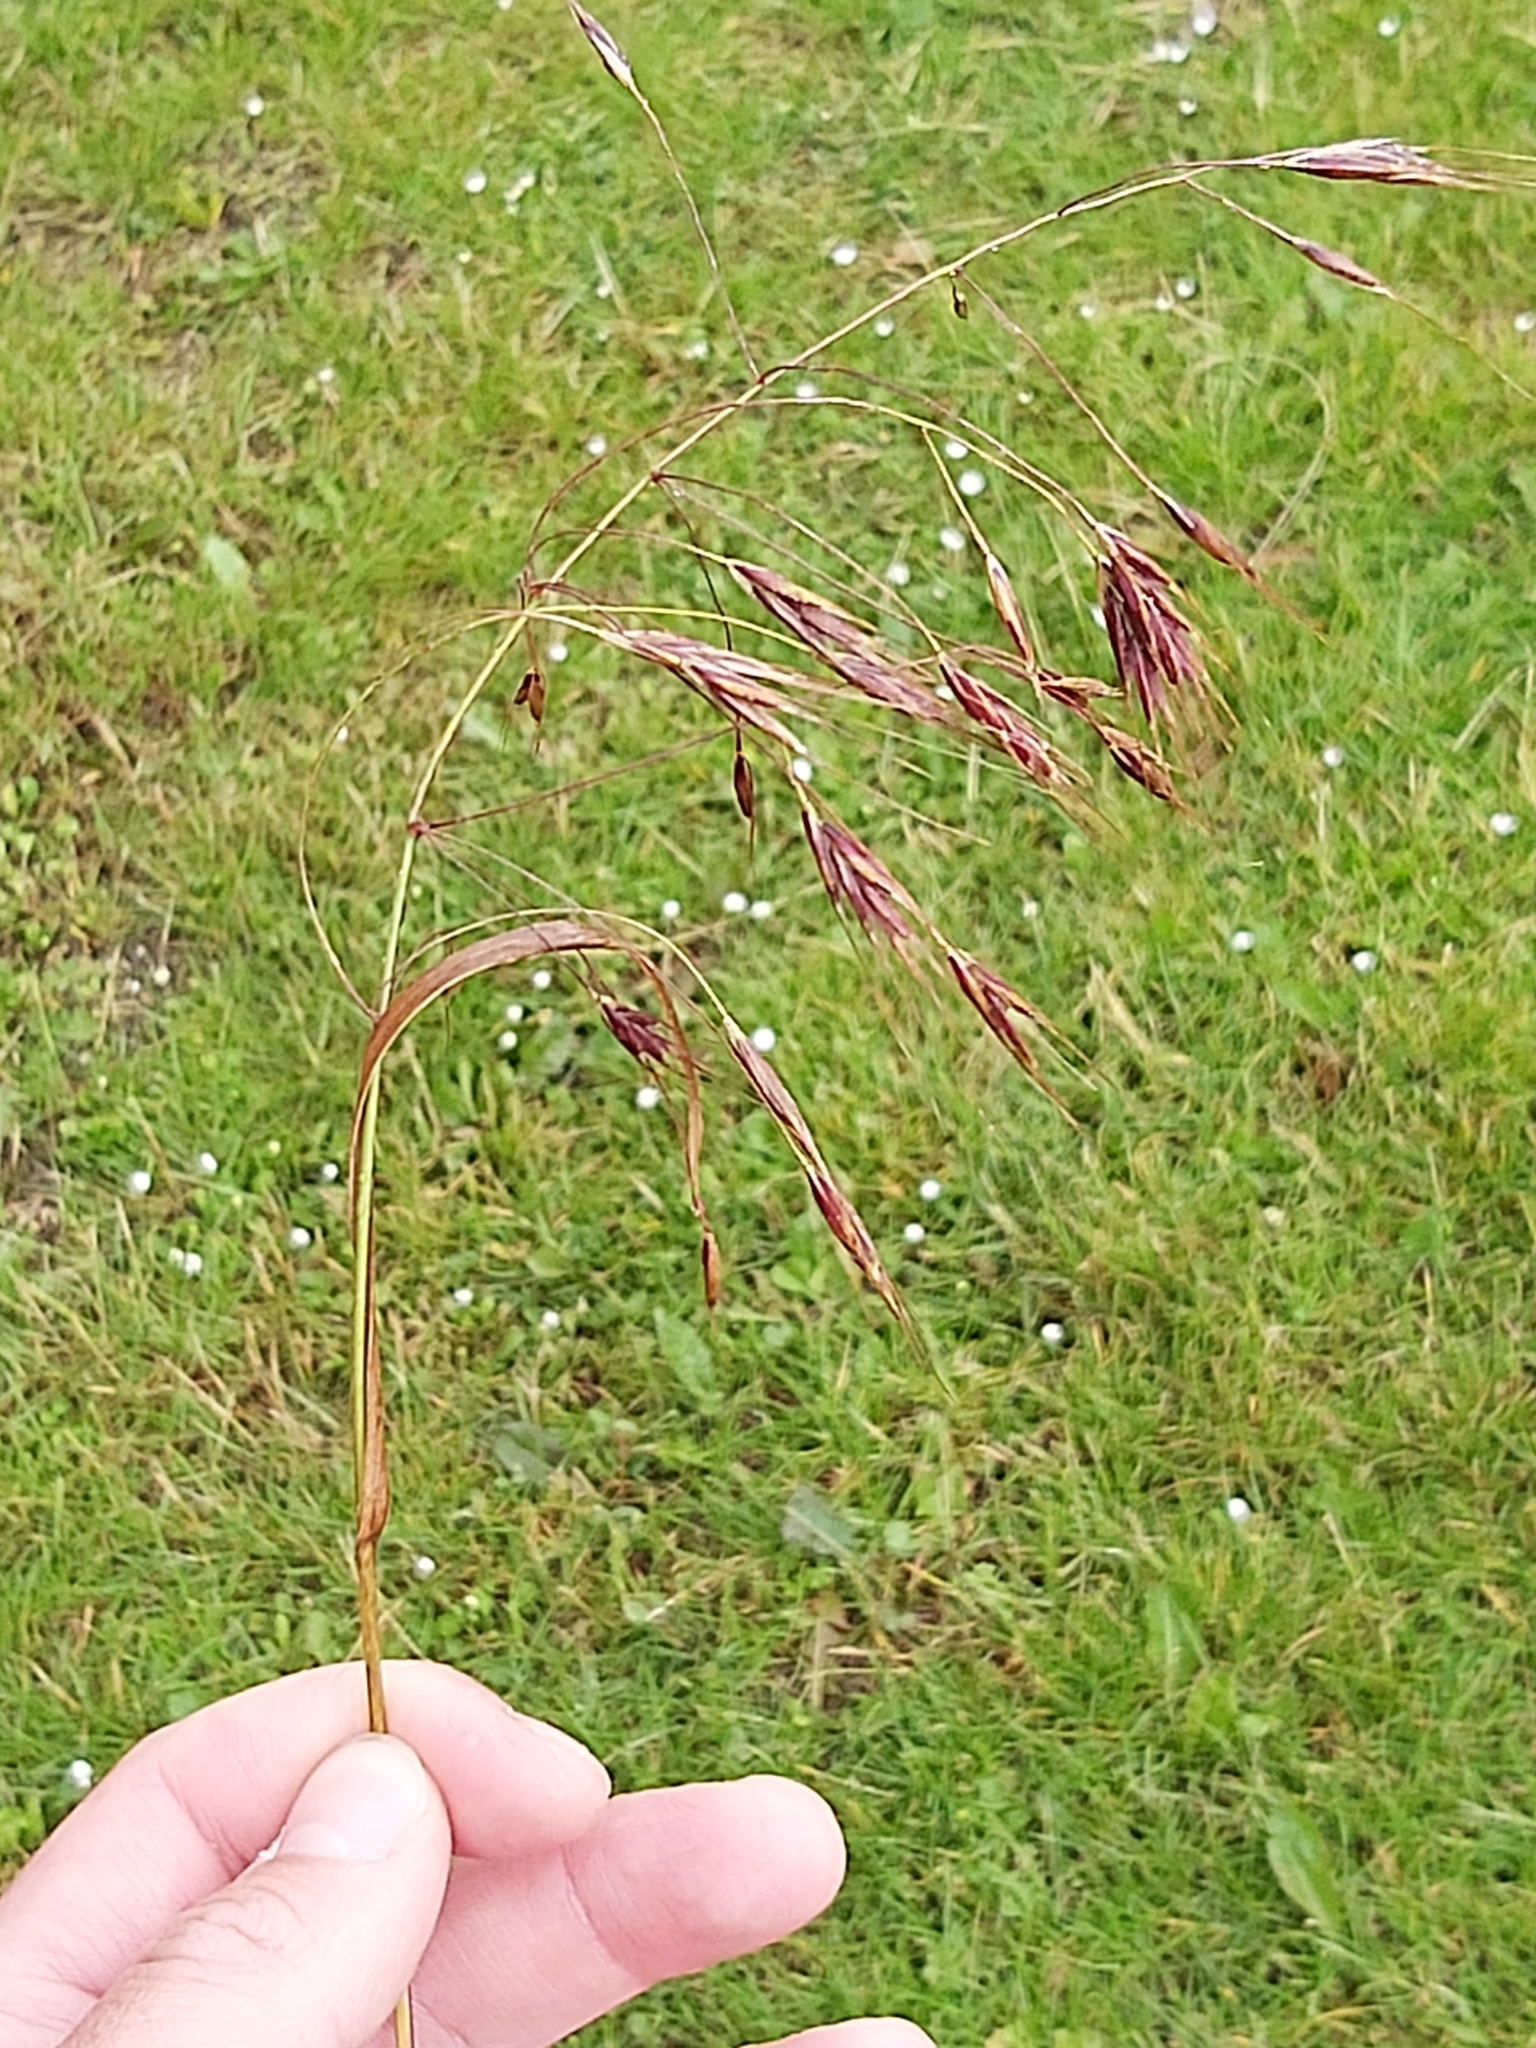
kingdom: Plantae
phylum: Tracheophyta
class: Liliopsida
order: Poales
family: Poaceae
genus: Bromus
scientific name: Bromus sterilis
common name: Poverty brome
